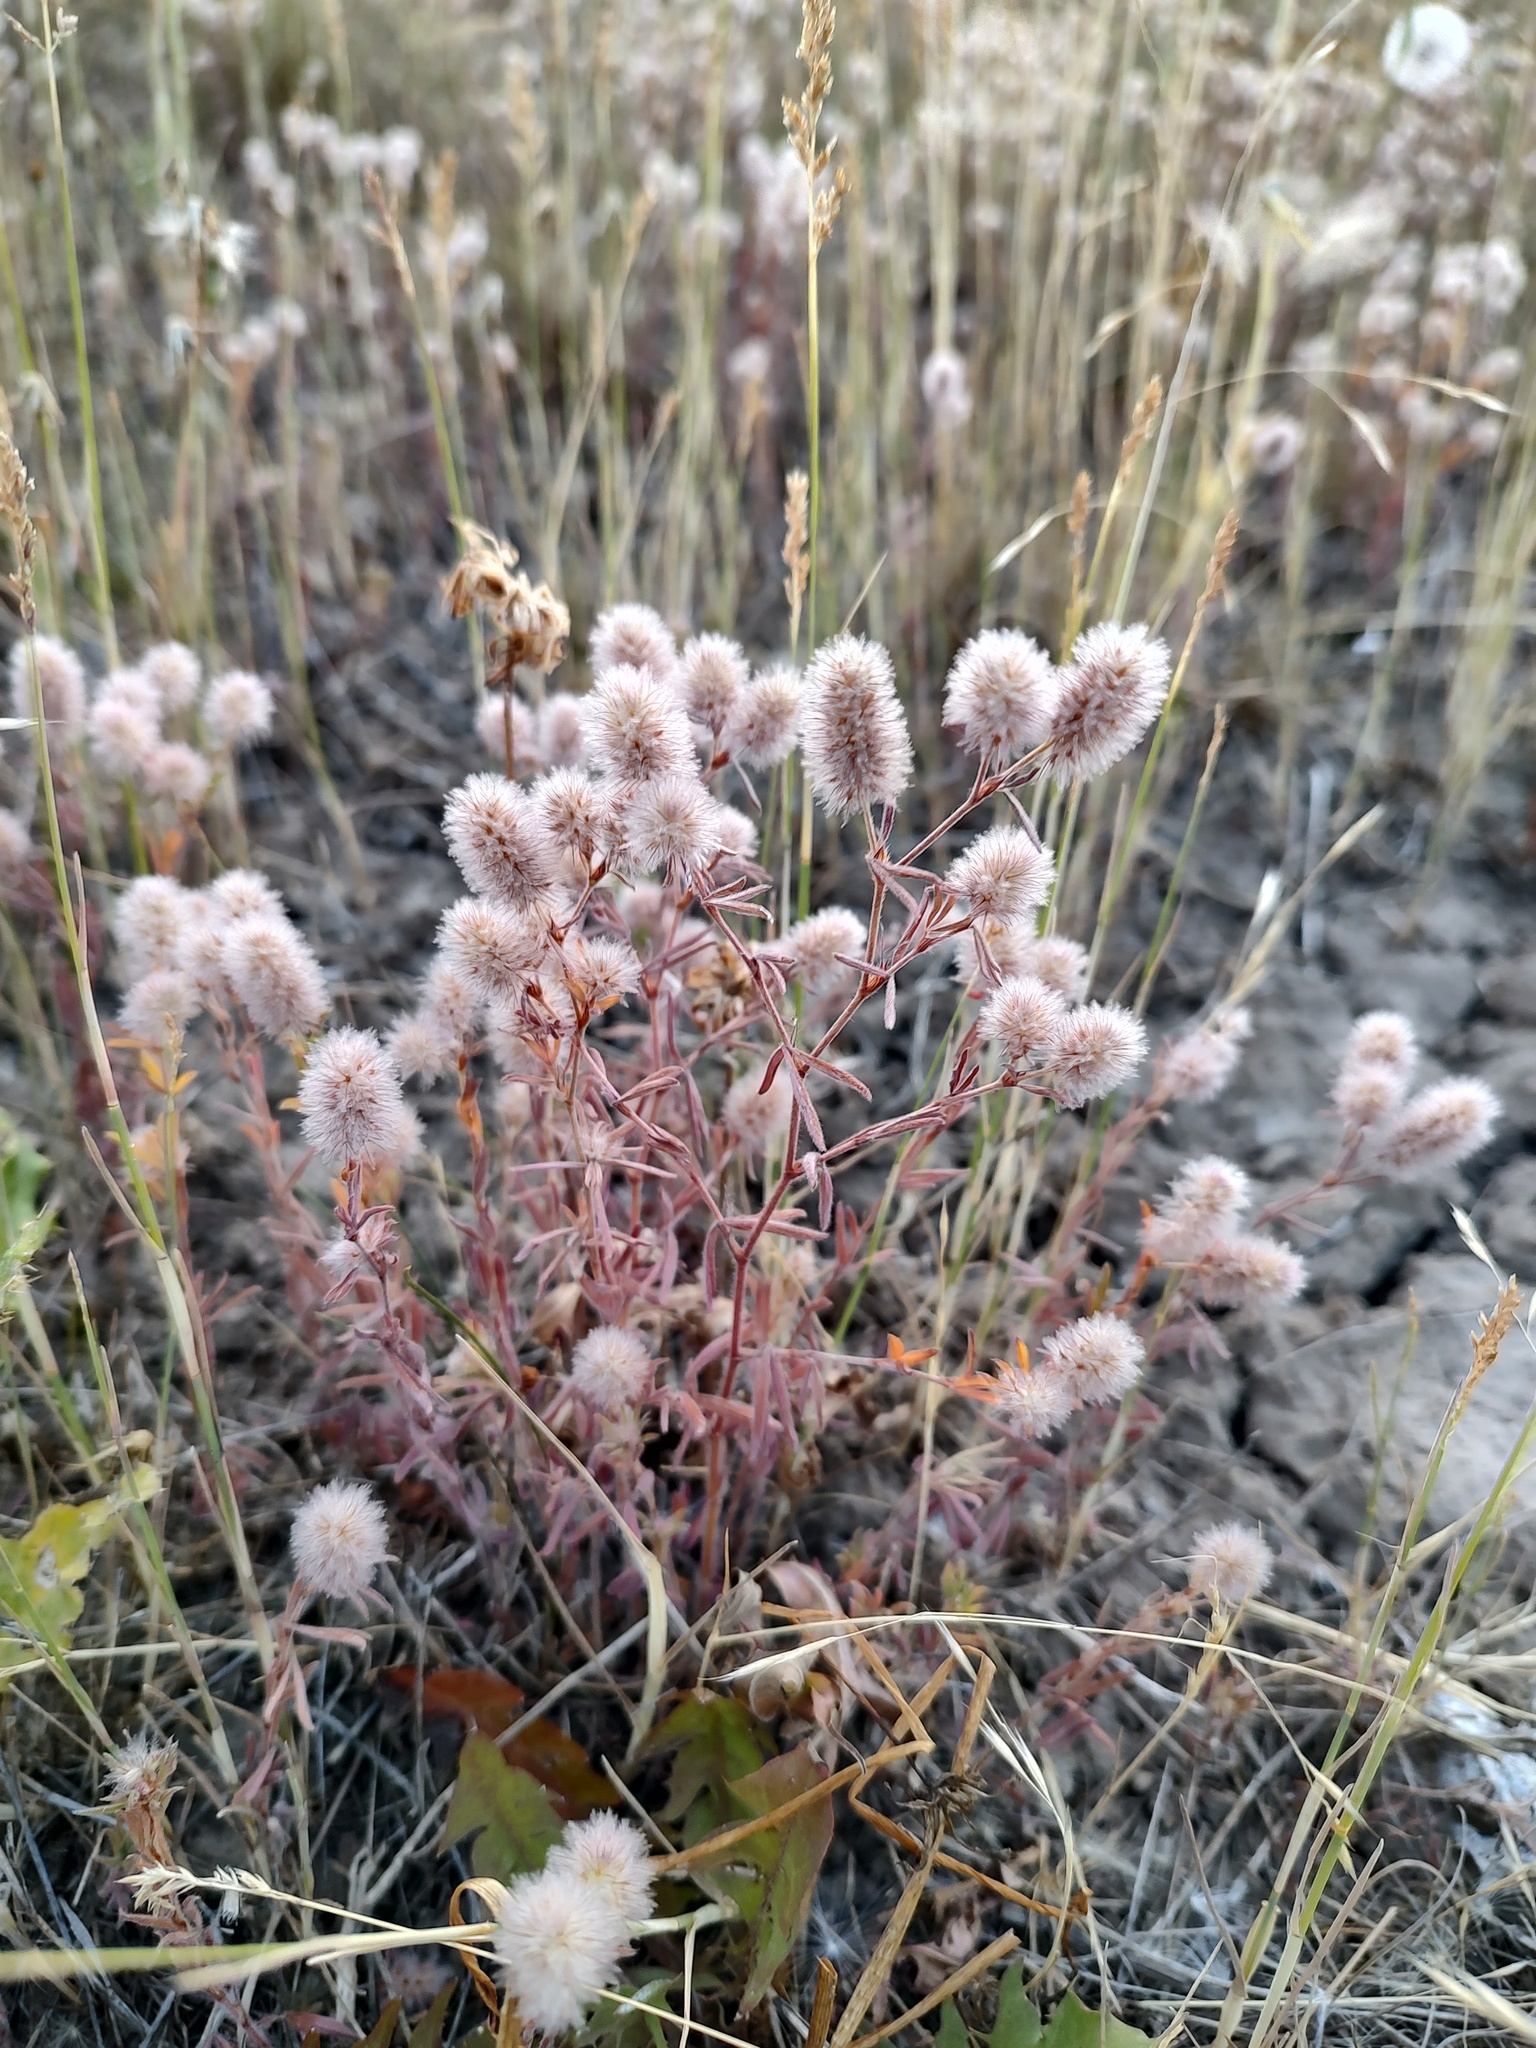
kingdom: Plantae
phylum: Tracheophyta
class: Magnoliopsida
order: Fabales
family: Fabaceae
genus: Trifolium
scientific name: Trifolium arvense
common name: Hare's-foot clover
